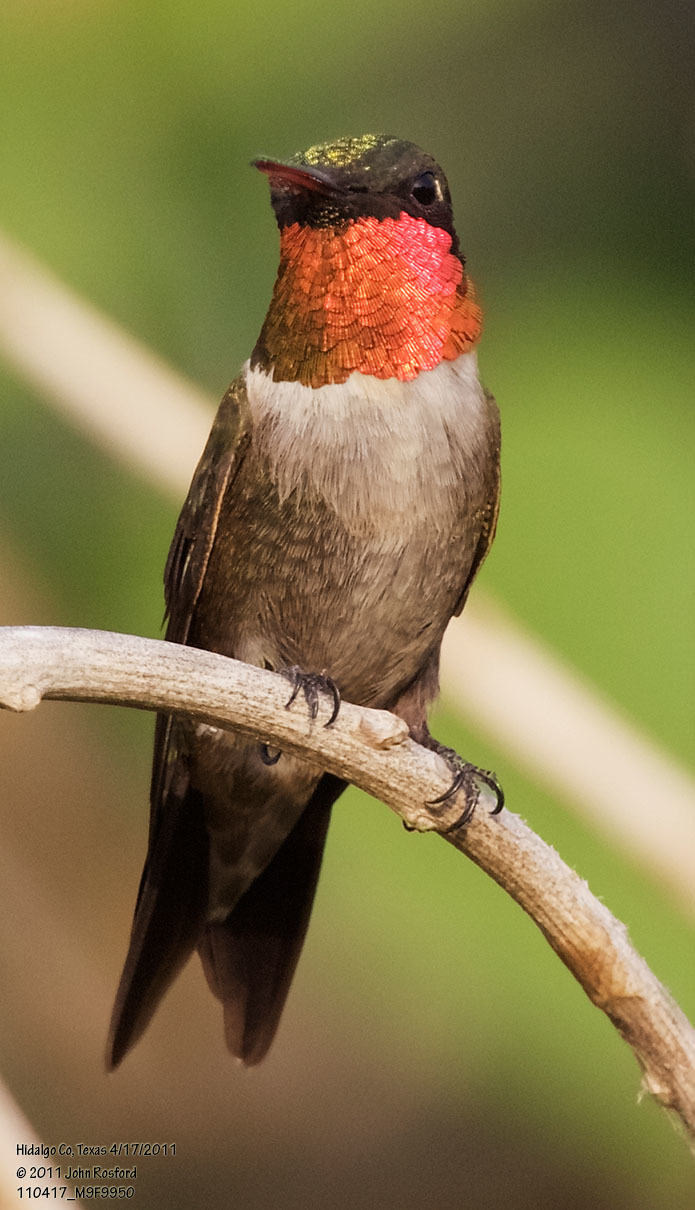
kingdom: Animalia
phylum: Chordata
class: Aves
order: Apodiformes
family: Trochilidae
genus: Archilochus
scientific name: Archilochus colubris
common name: Ruby-throated hummingbird
